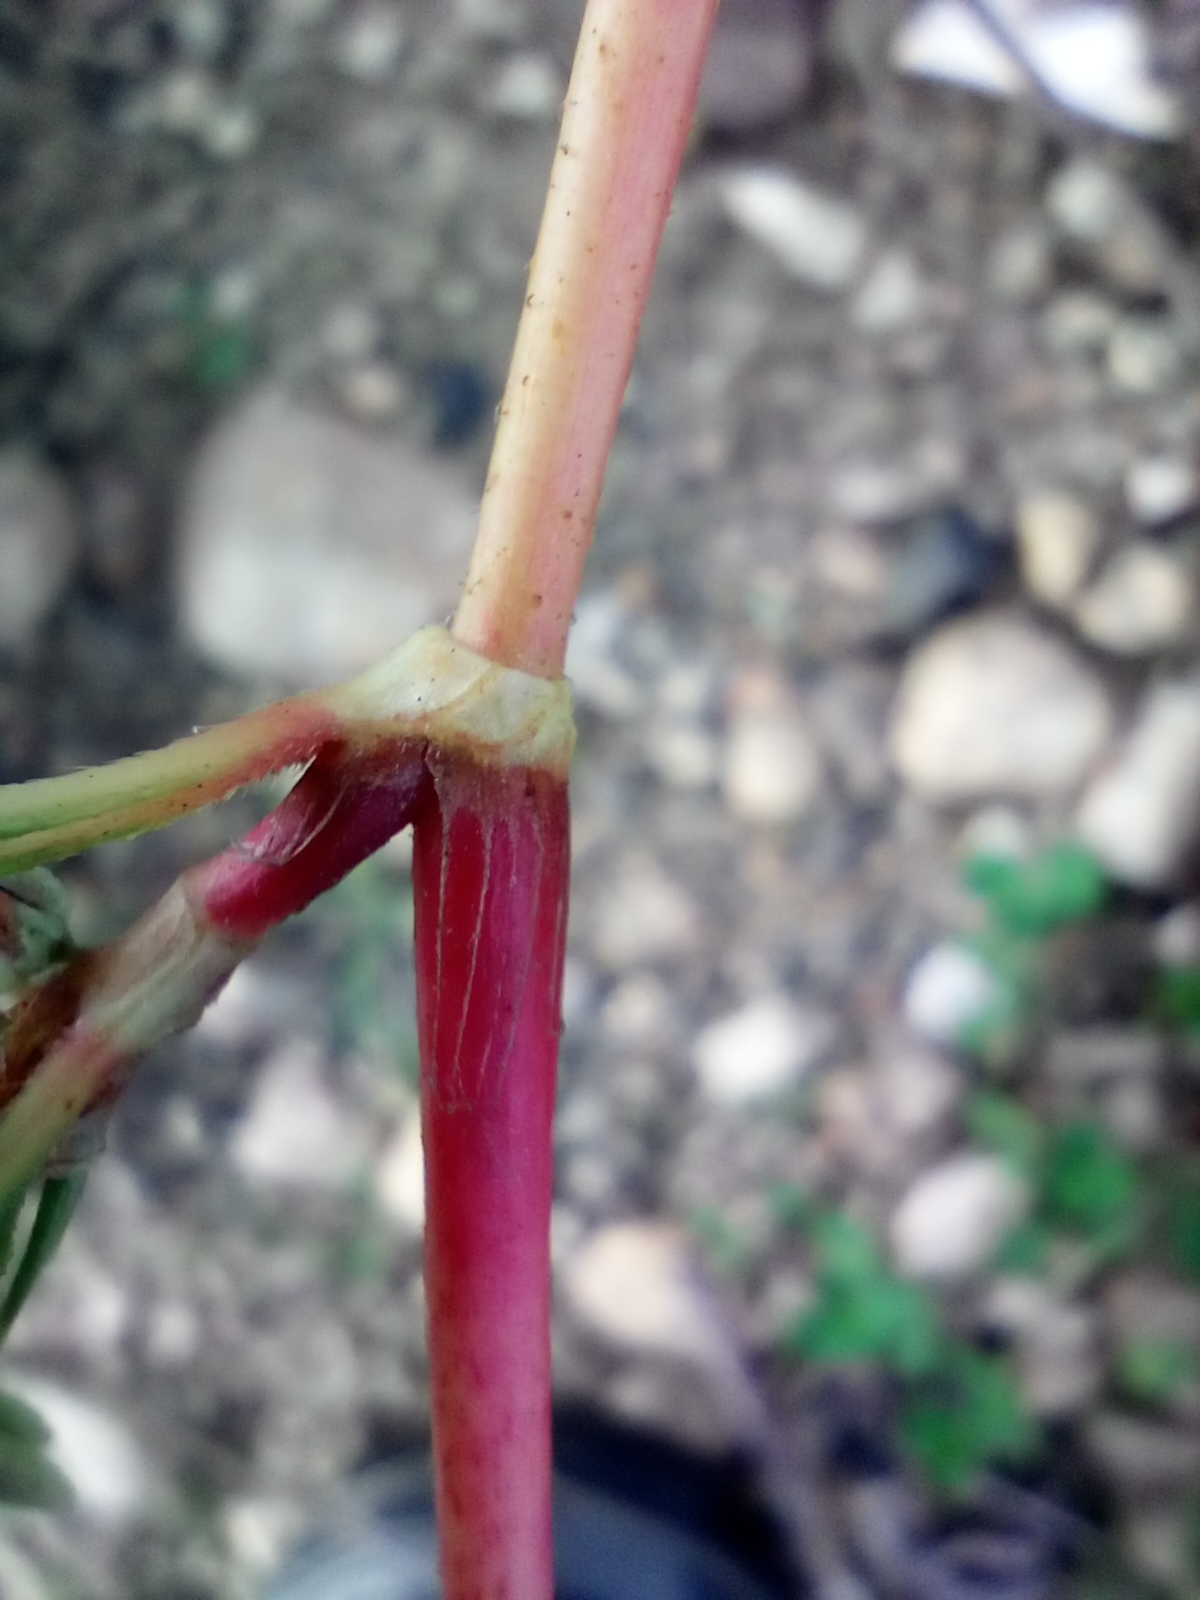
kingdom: Plantae
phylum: Tracheophyta
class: Magnoliopsida
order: Caryophyllales
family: Polygonaceae
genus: Persicaria
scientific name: Persicaria lapathifolia
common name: Curlytop knotweed
